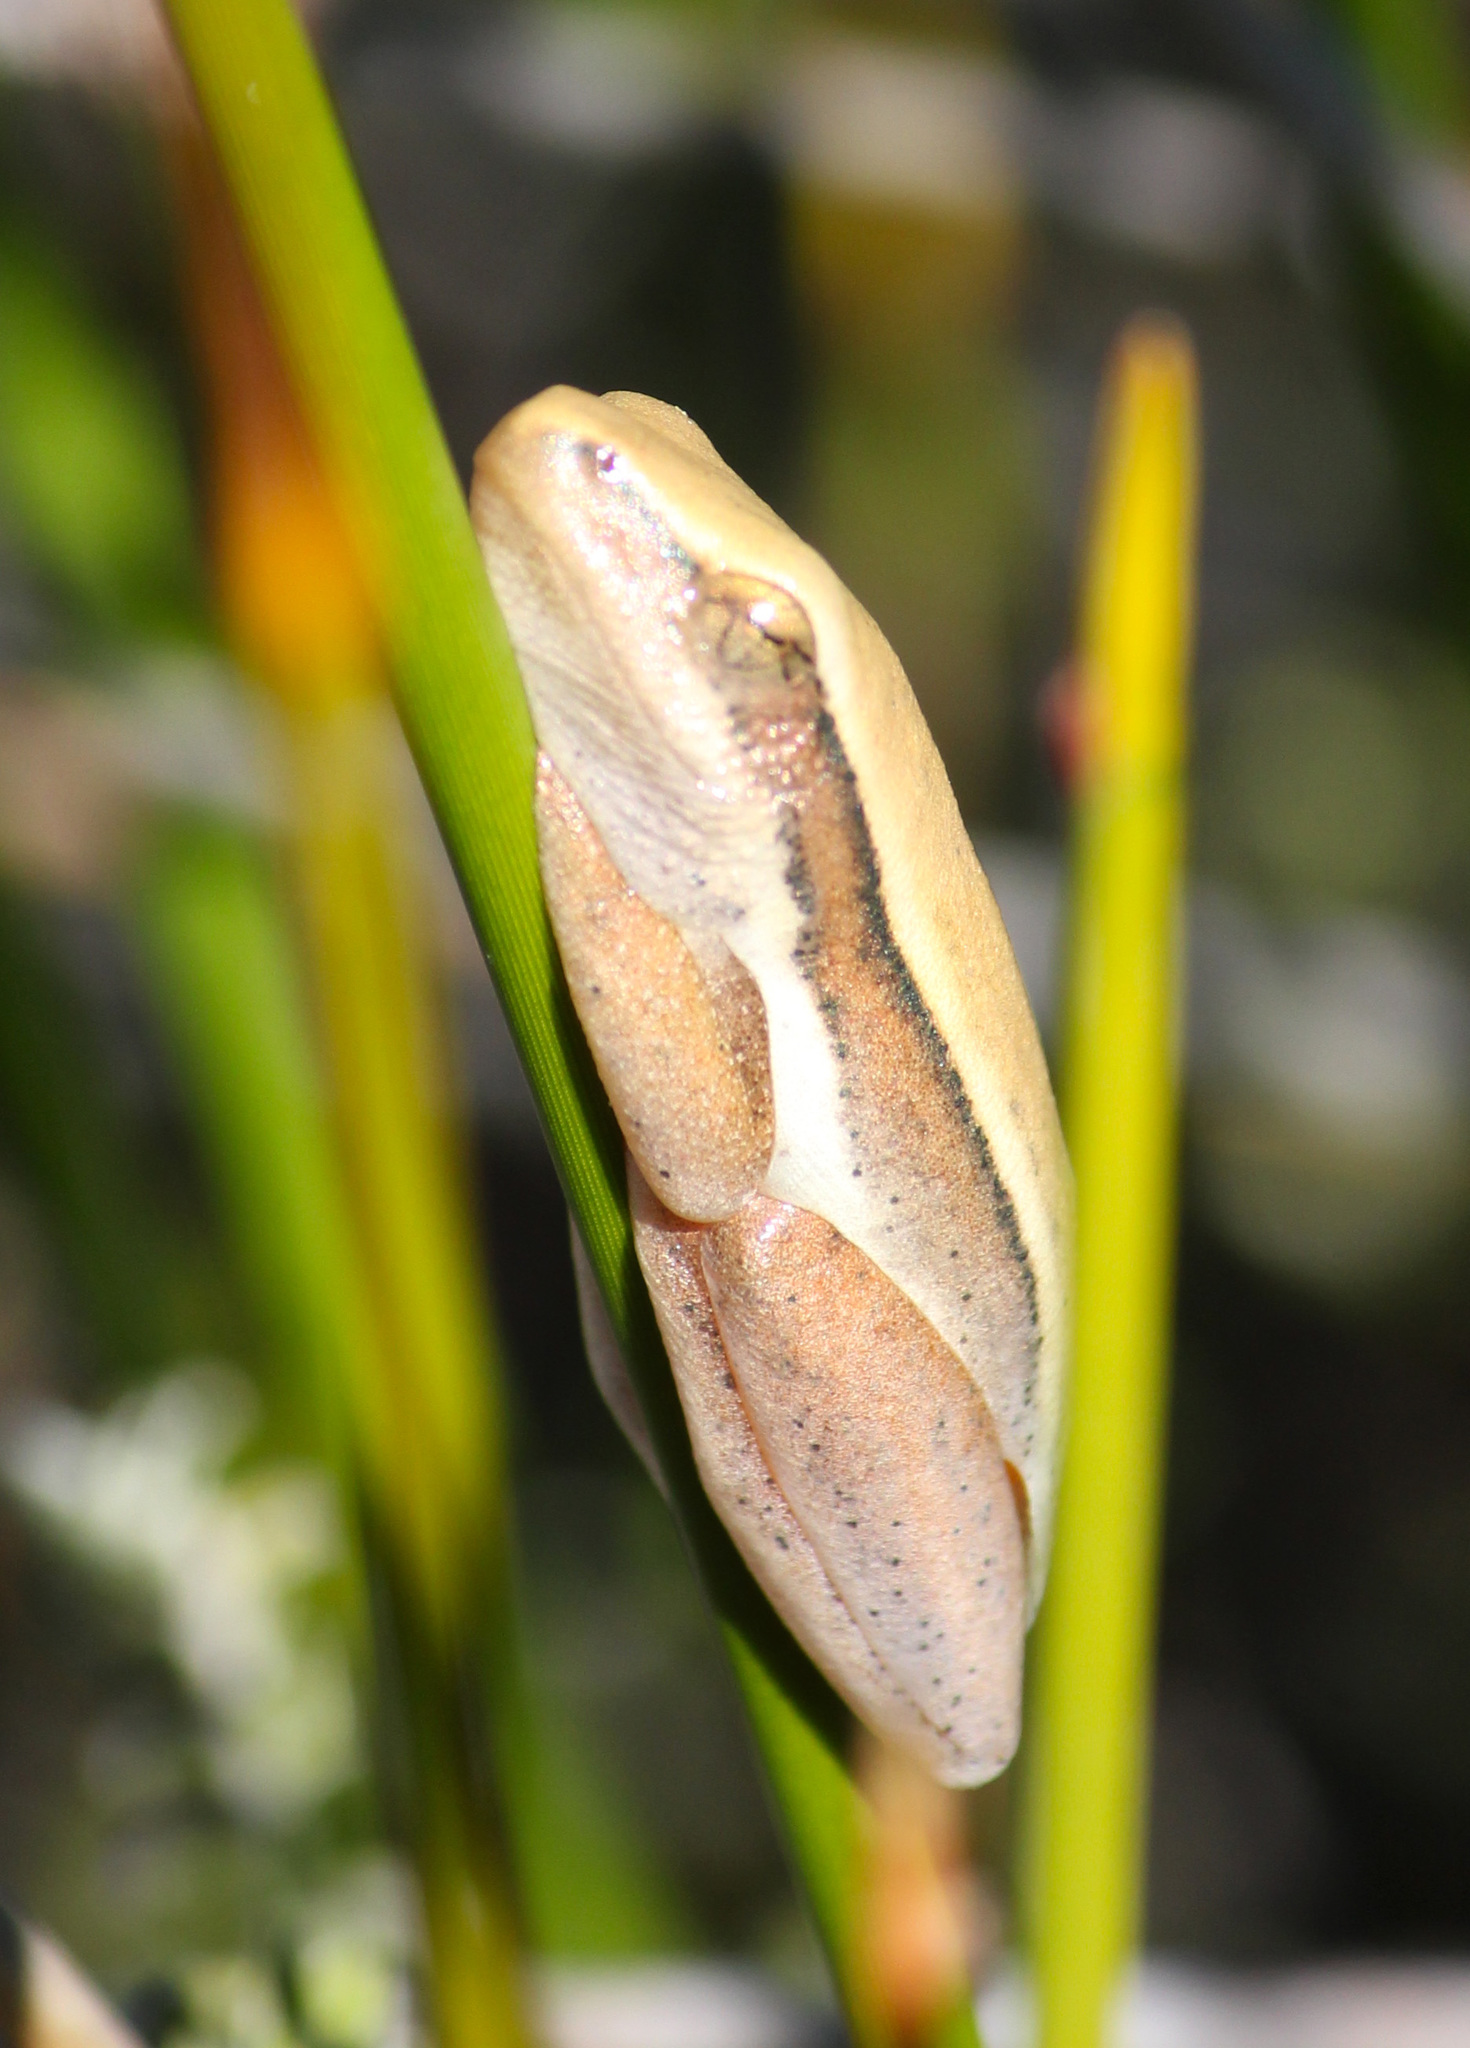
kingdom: Animalia
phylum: Chordata
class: Amphibia
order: Anura
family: Hyperoliidae
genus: Hyperolius
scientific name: Hyperolius horstockii
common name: Arum lily frog
